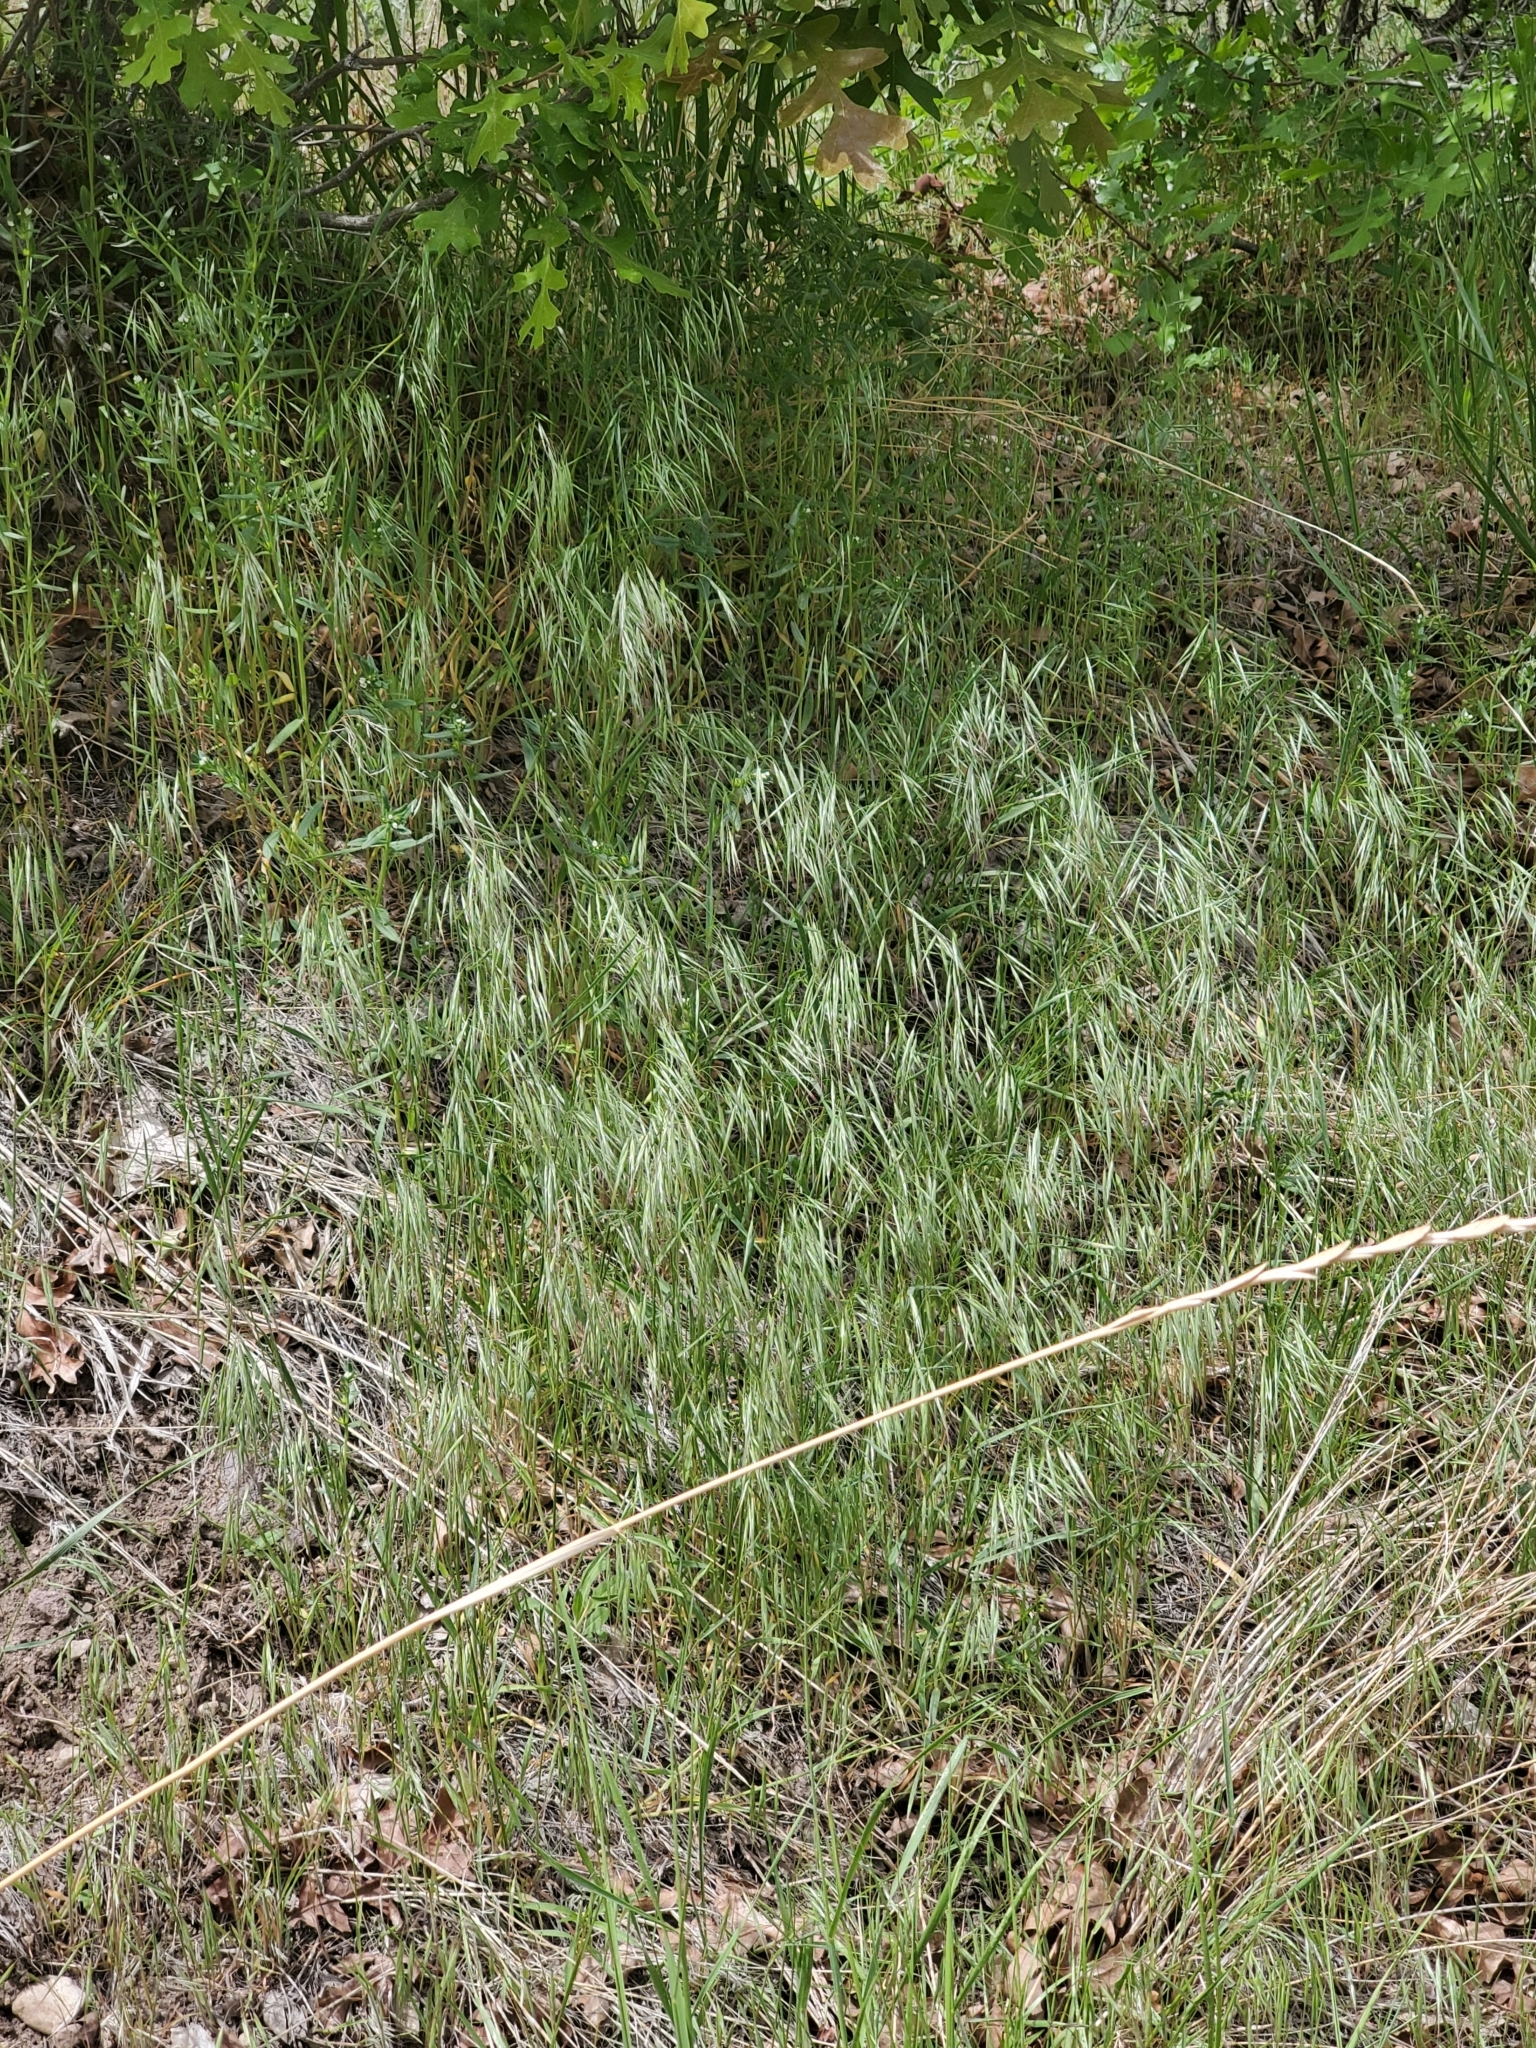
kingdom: Plantae
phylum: Tracheophyta
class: Liliopsida
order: Poales
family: Poaceae
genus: Bromus
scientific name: Bromus tectorum
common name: Cheatgrass
